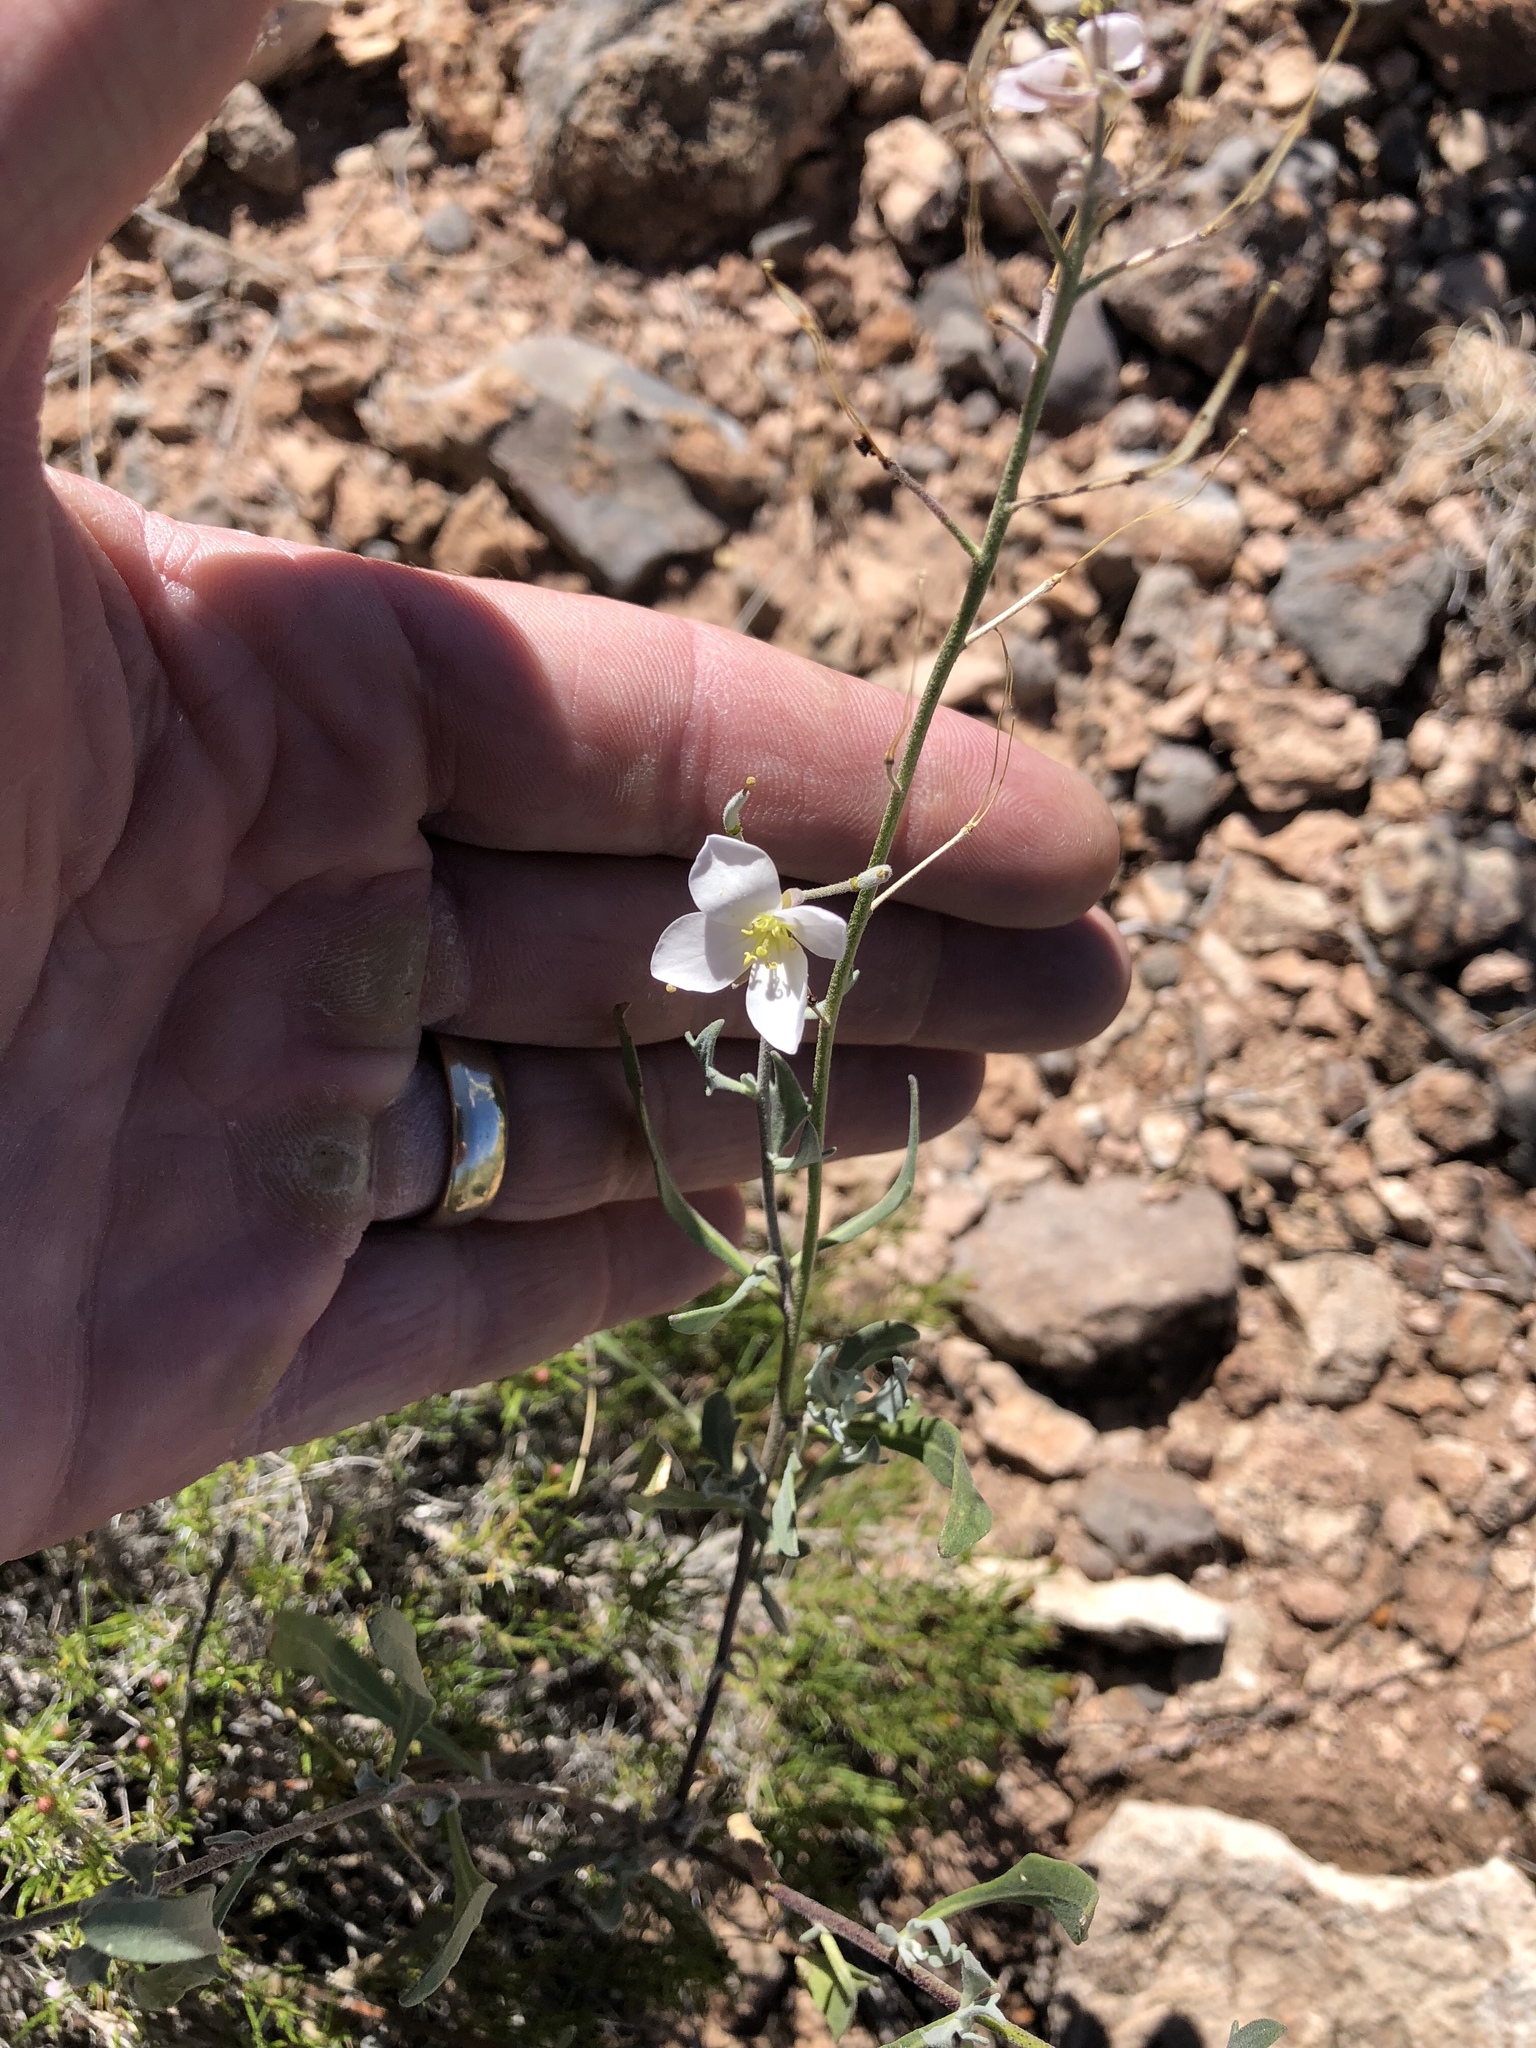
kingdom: Plantae
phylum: Tracheophyta
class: Magnoliopsida
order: Brassicales
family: Brassicaceae
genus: Nerisyrenia
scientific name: Nerisyrenia camporum
